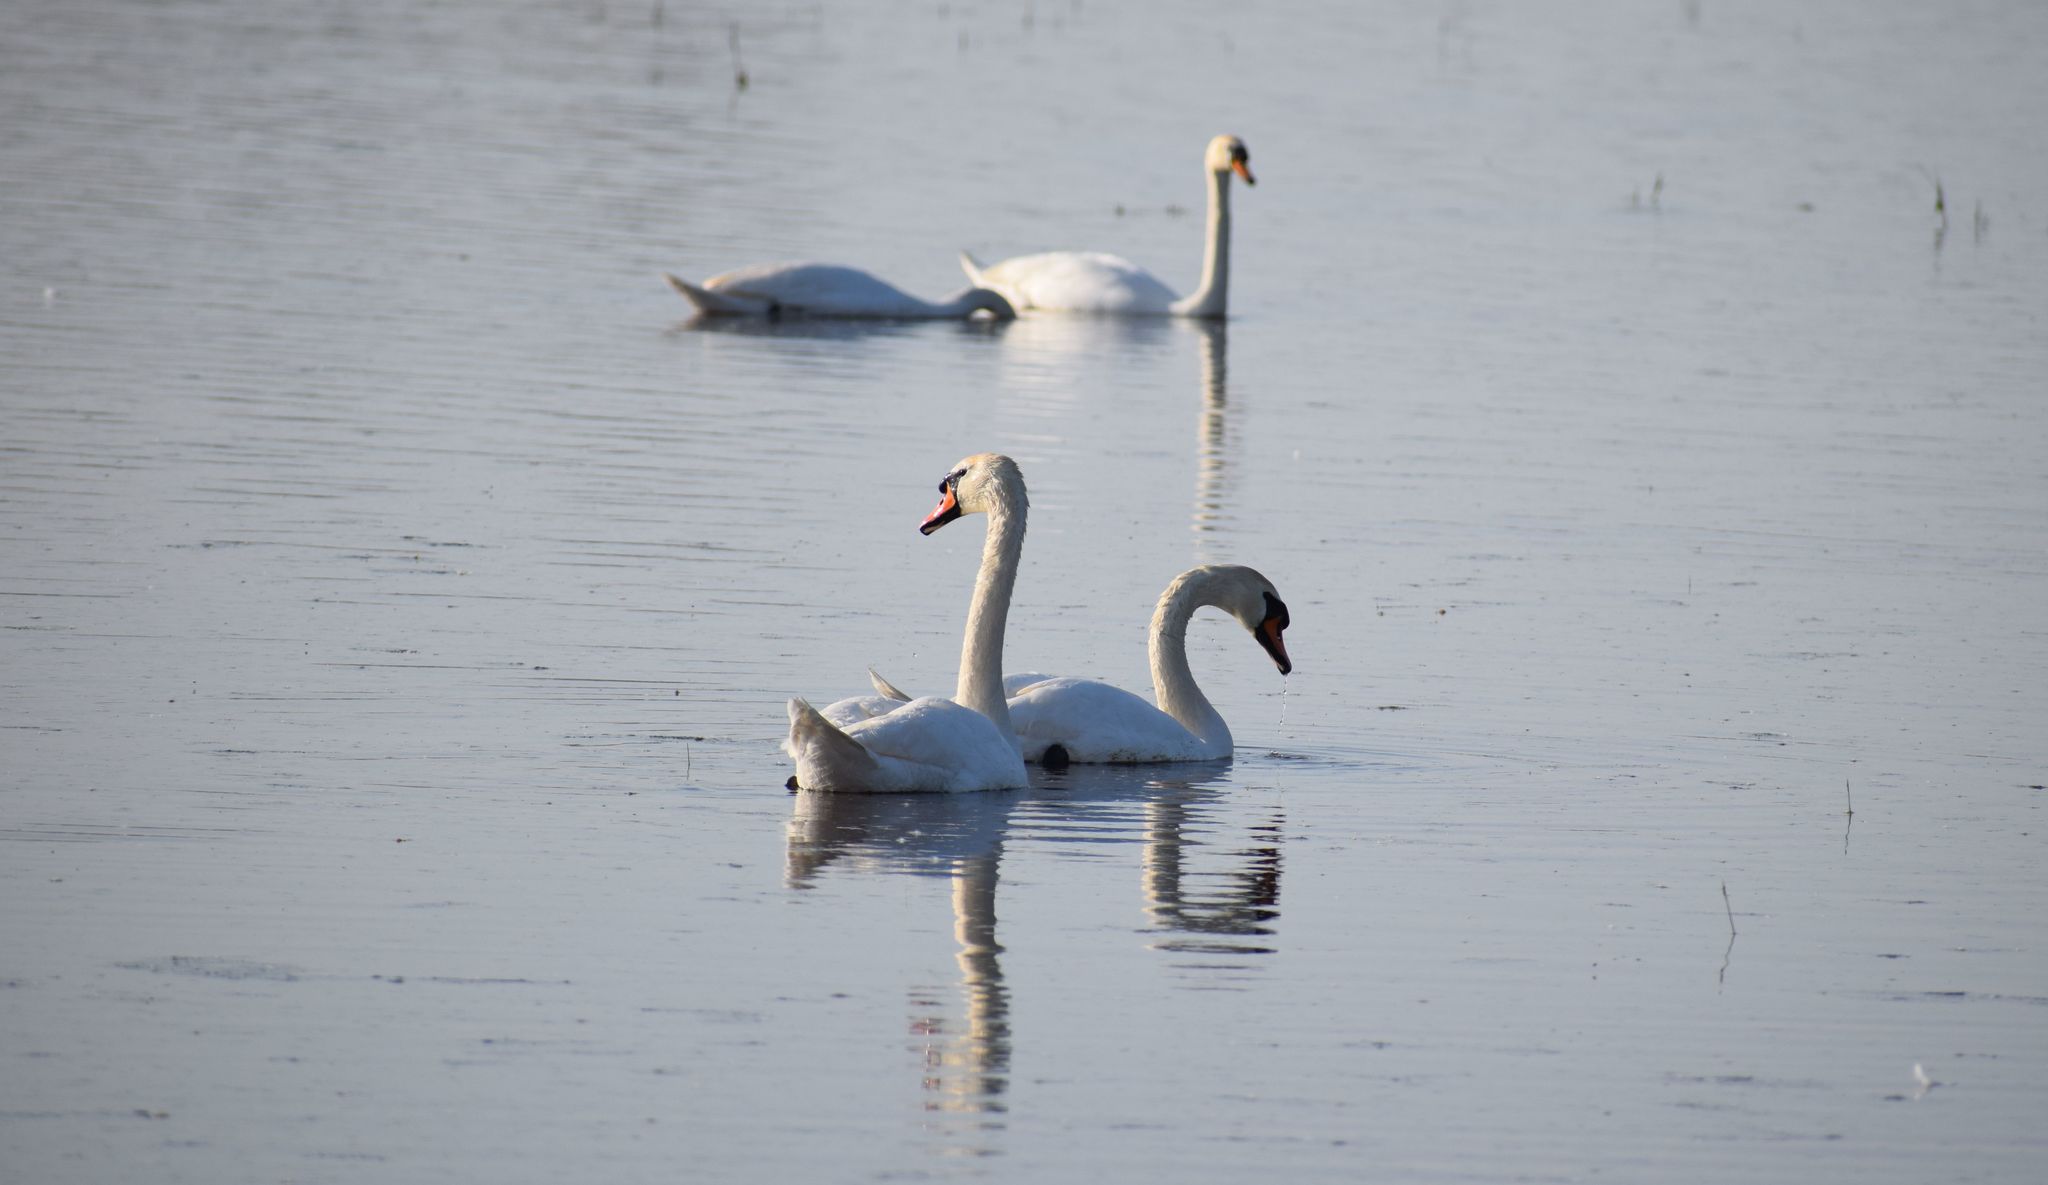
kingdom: Animalia
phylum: Chordata
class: Aves
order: Anseriformes
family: Anatidae
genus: Cygnus
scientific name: Cygnus olor
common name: Mute swan
